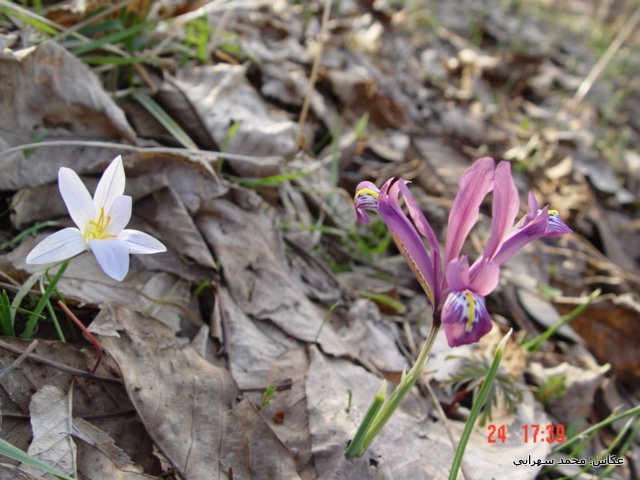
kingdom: Plantae
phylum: Tracheophyta
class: Liliopsida
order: Asparagales
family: Iridaceae
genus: Iris
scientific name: Iris reticulata
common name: Netted iris
